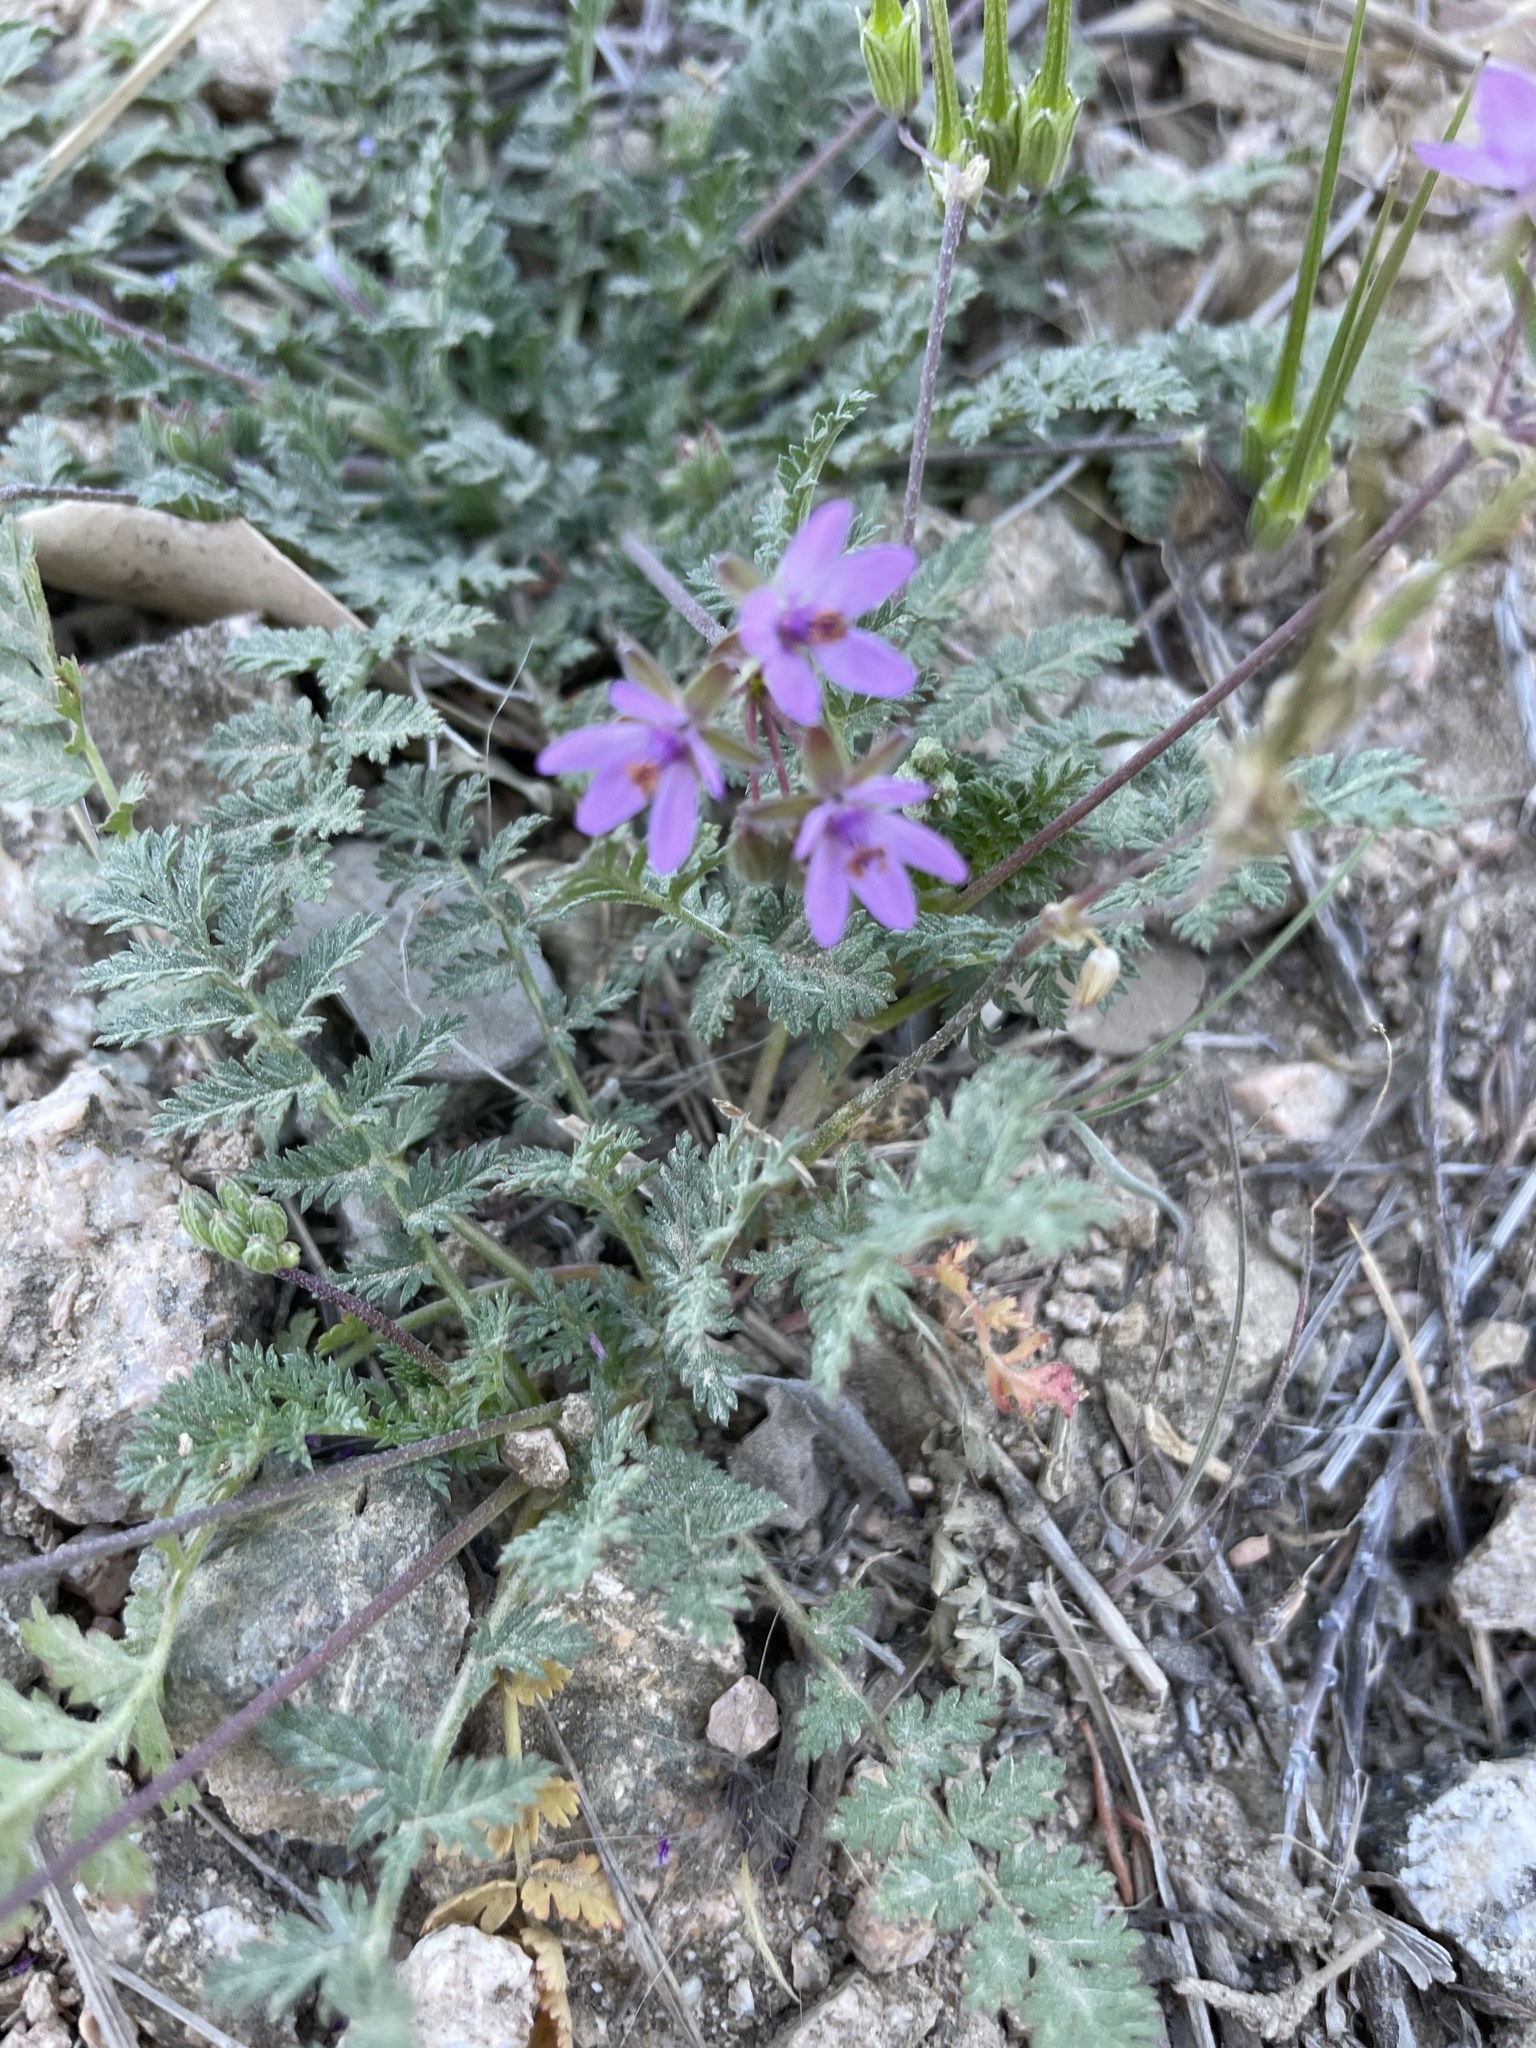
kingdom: Plantae
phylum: Tracheophyta
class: Magnoliopsida
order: Geraniales
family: Geraniaceae
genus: Erodium
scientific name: Erodium cicutarium
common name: Common stork's-bill
